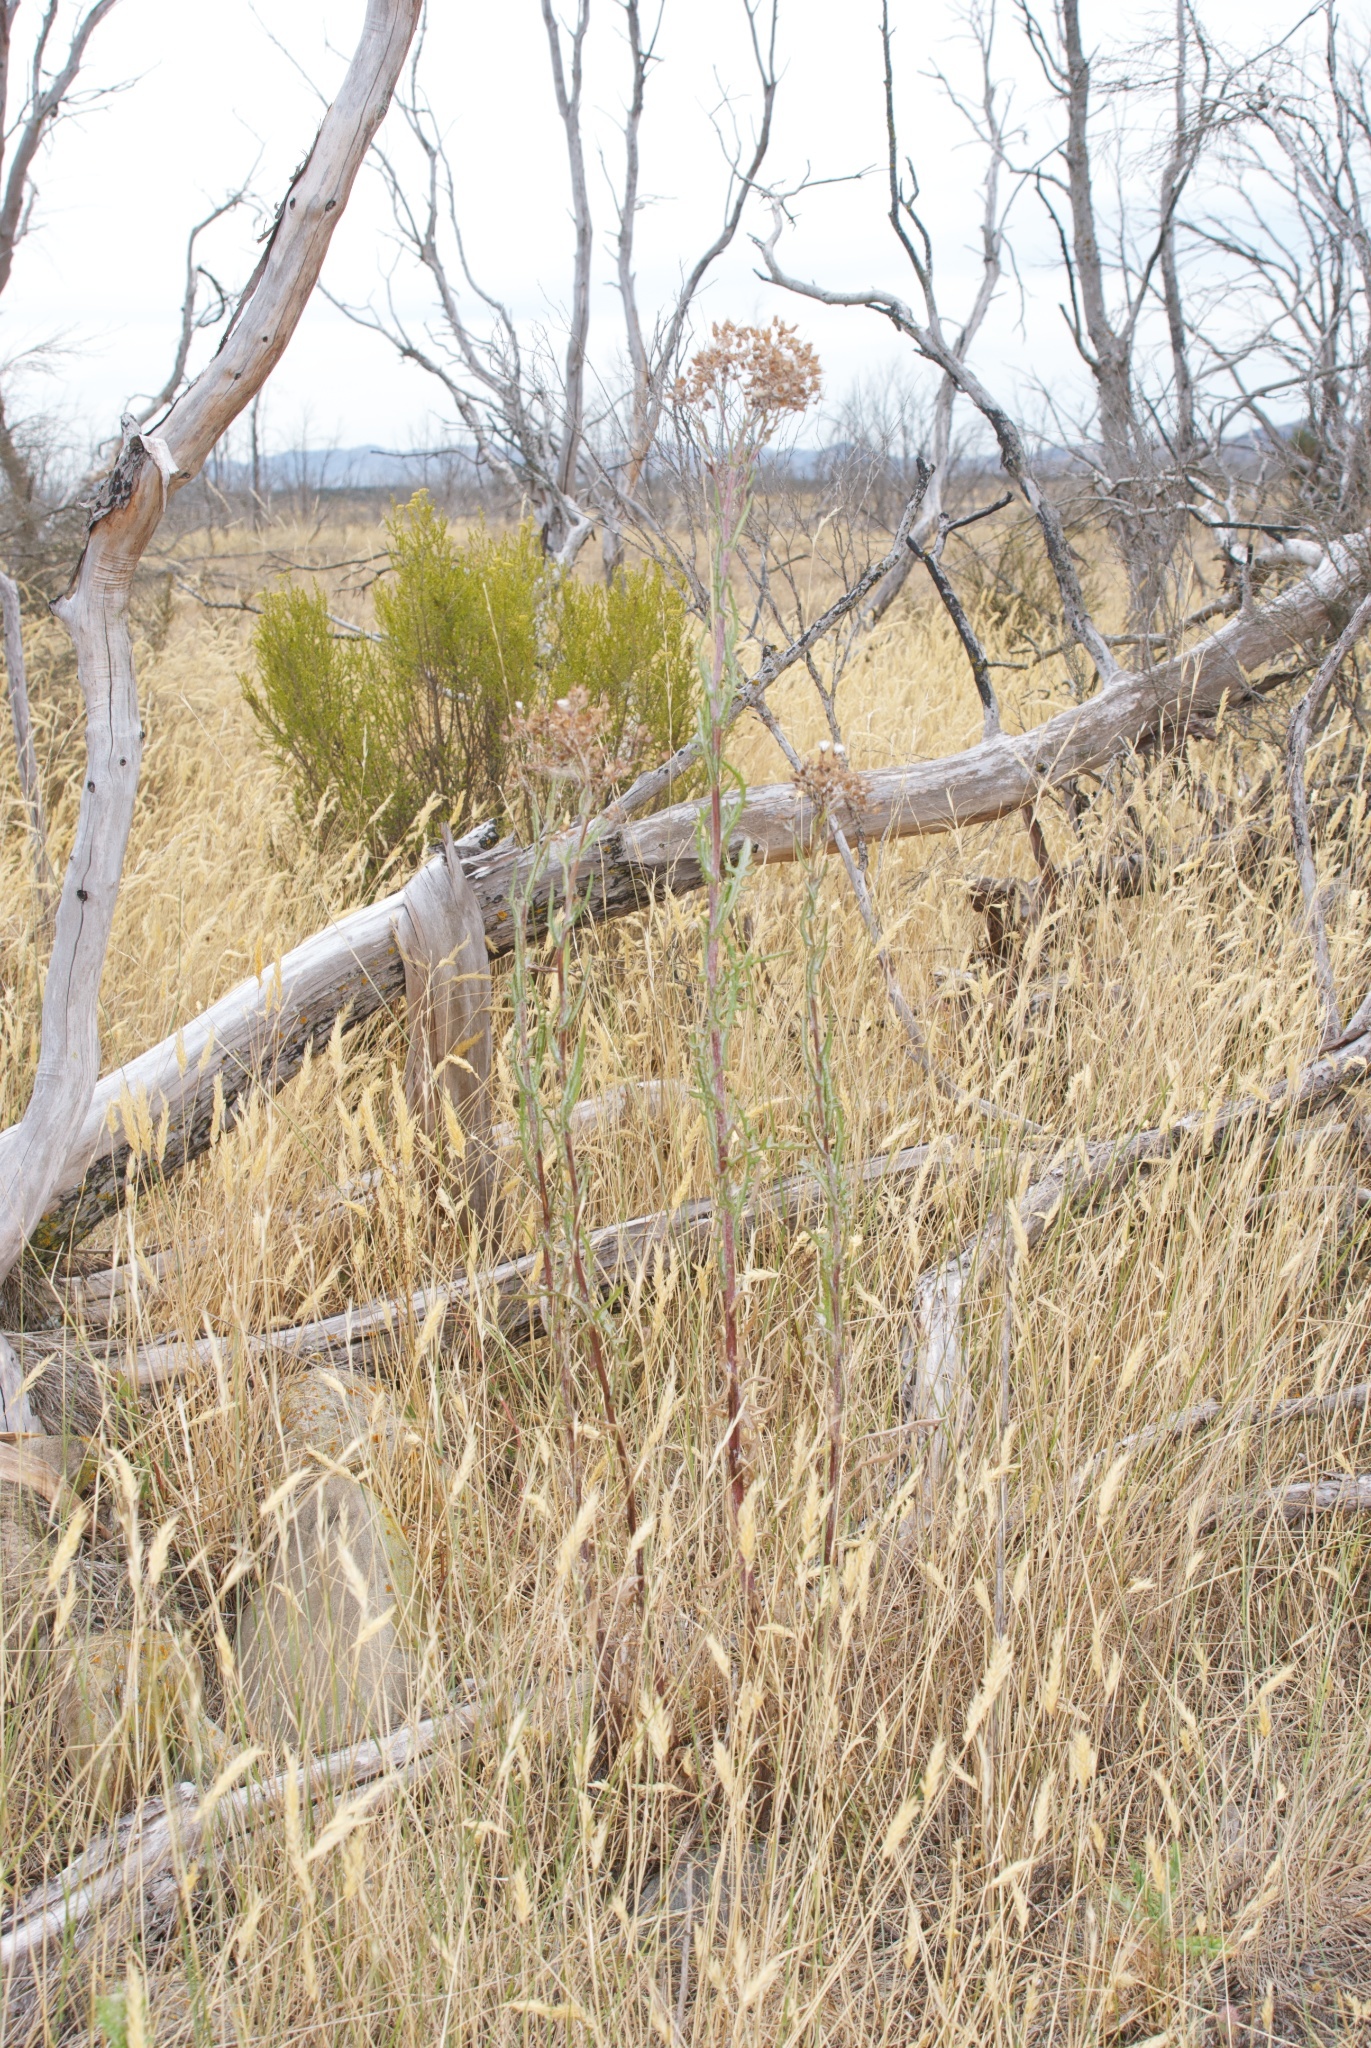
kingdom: Plantae
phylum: Tracheophyta
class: Magnoliopsida
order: Asterales
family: Asteraceae
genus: Senecio
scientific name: Senecio glomeratus
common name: Cutleaf burnweed
